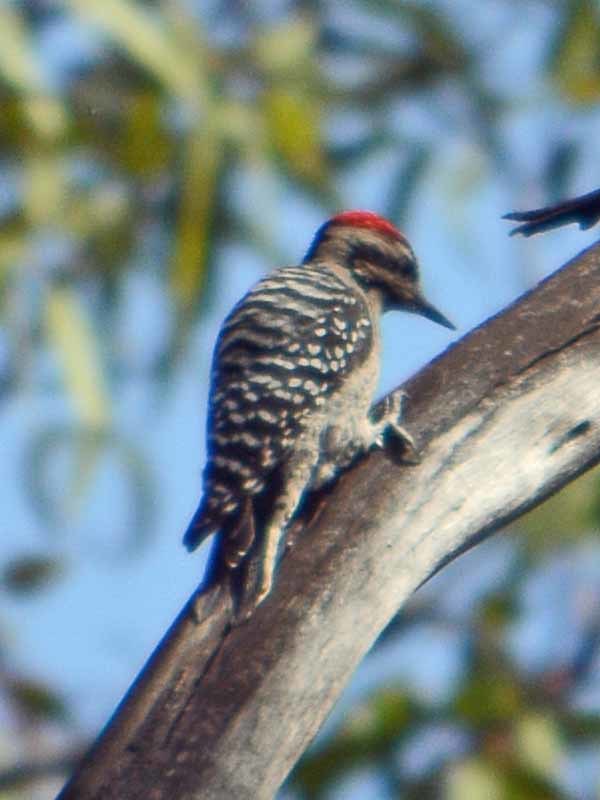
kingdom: Animalia
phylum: Chordata
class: Aves
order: Piciformes
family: Picidae
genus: Dryobates
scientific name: Dryobates scalaris
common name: Ladder-backed woodpecker
